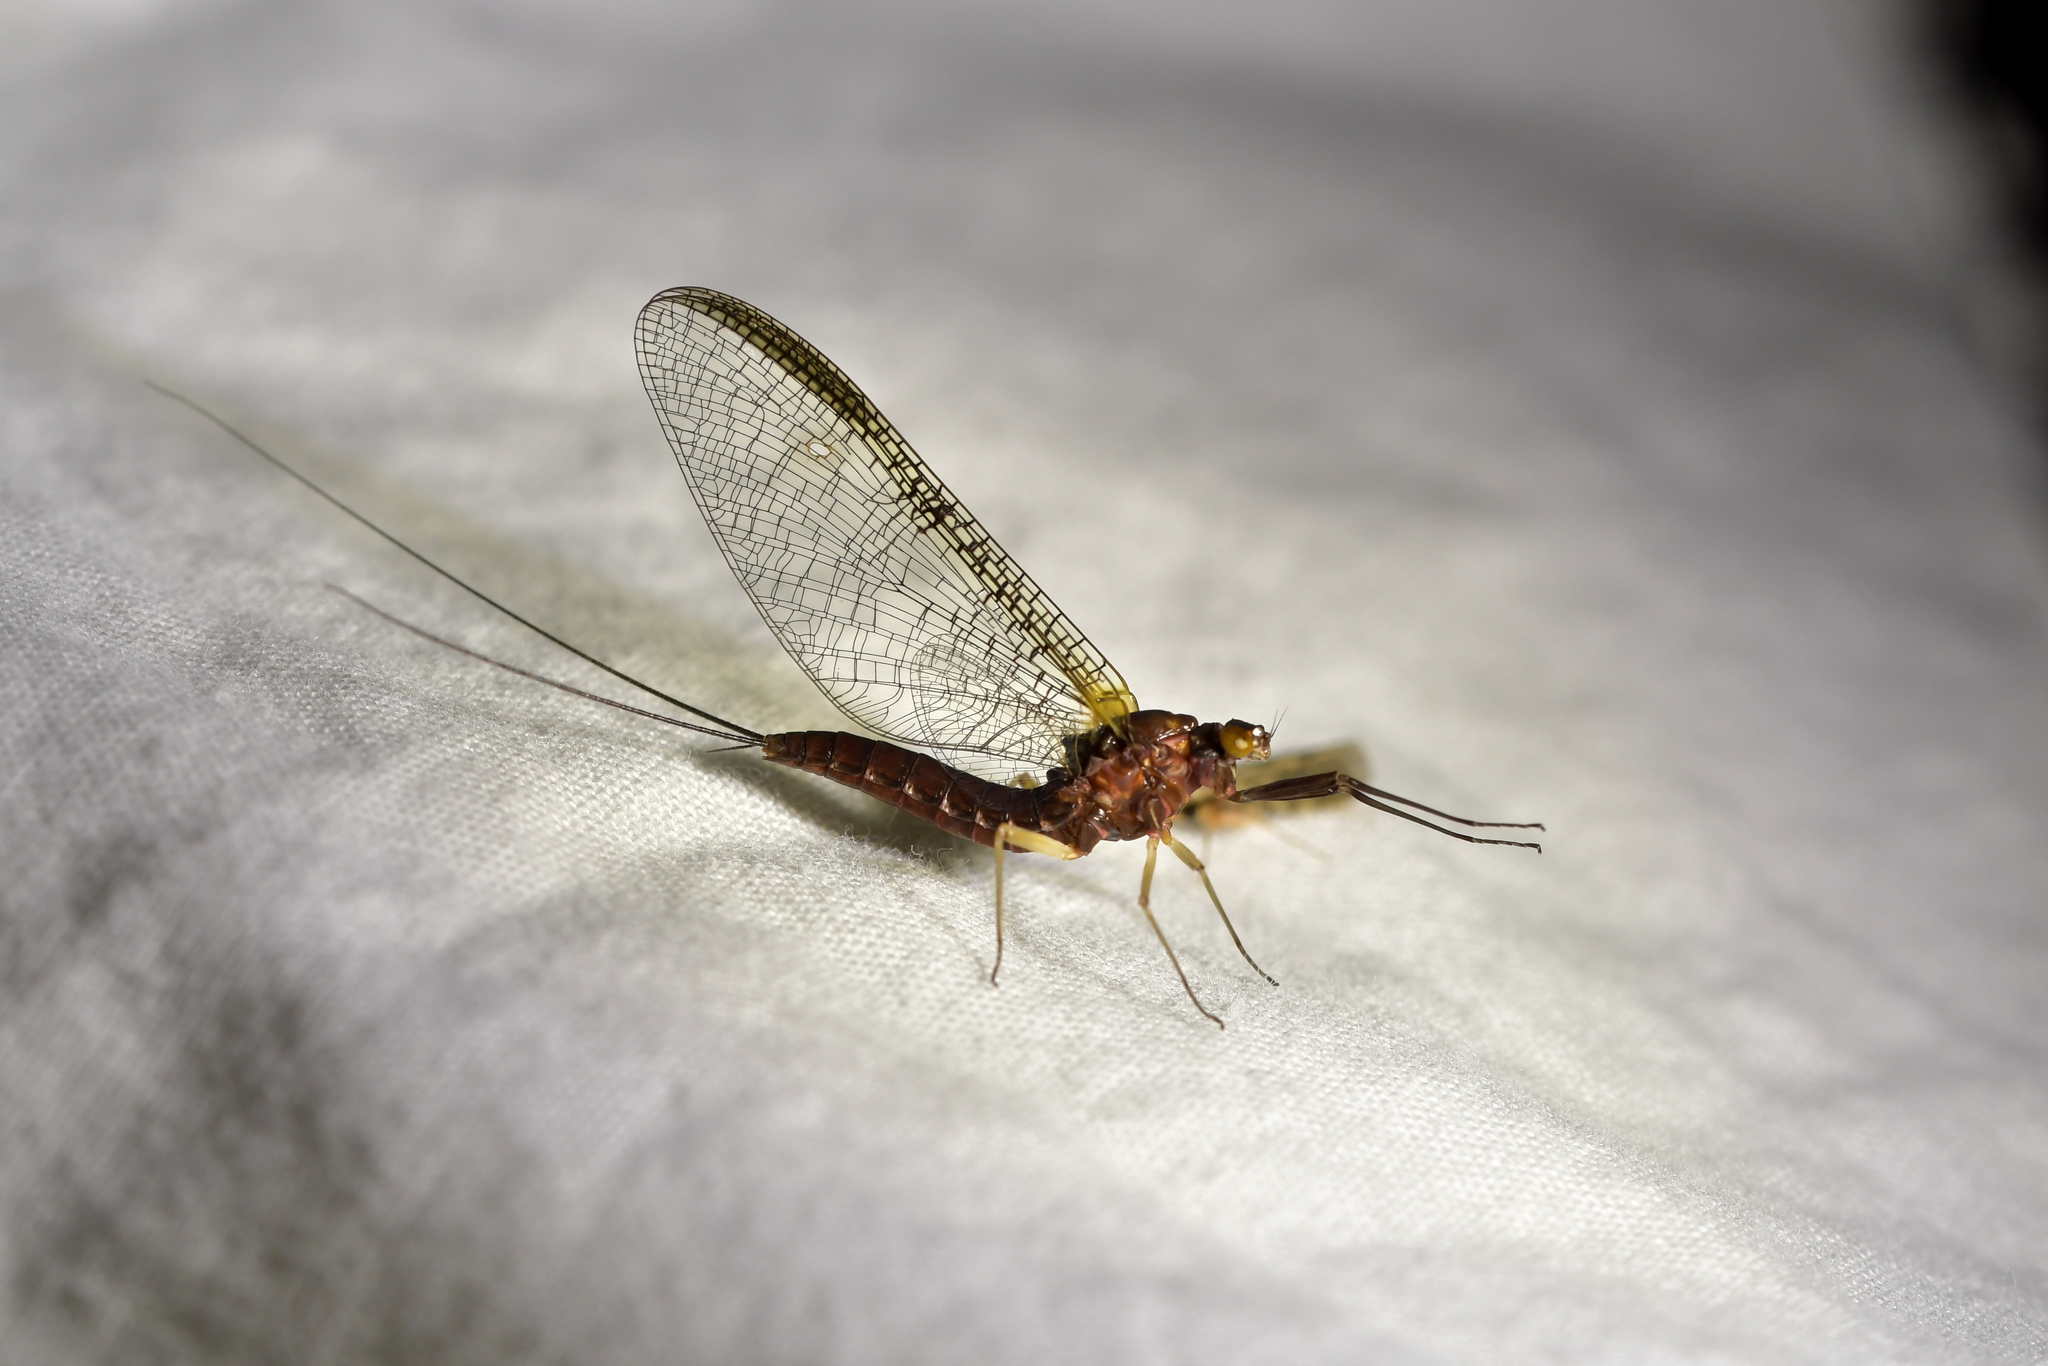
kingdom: Animalia
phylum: Arthropoda
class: Insecta
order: Ephemeroptera
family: Coloburiscidae
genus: Coloburiscus
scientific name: Coloburiscus humeralis
